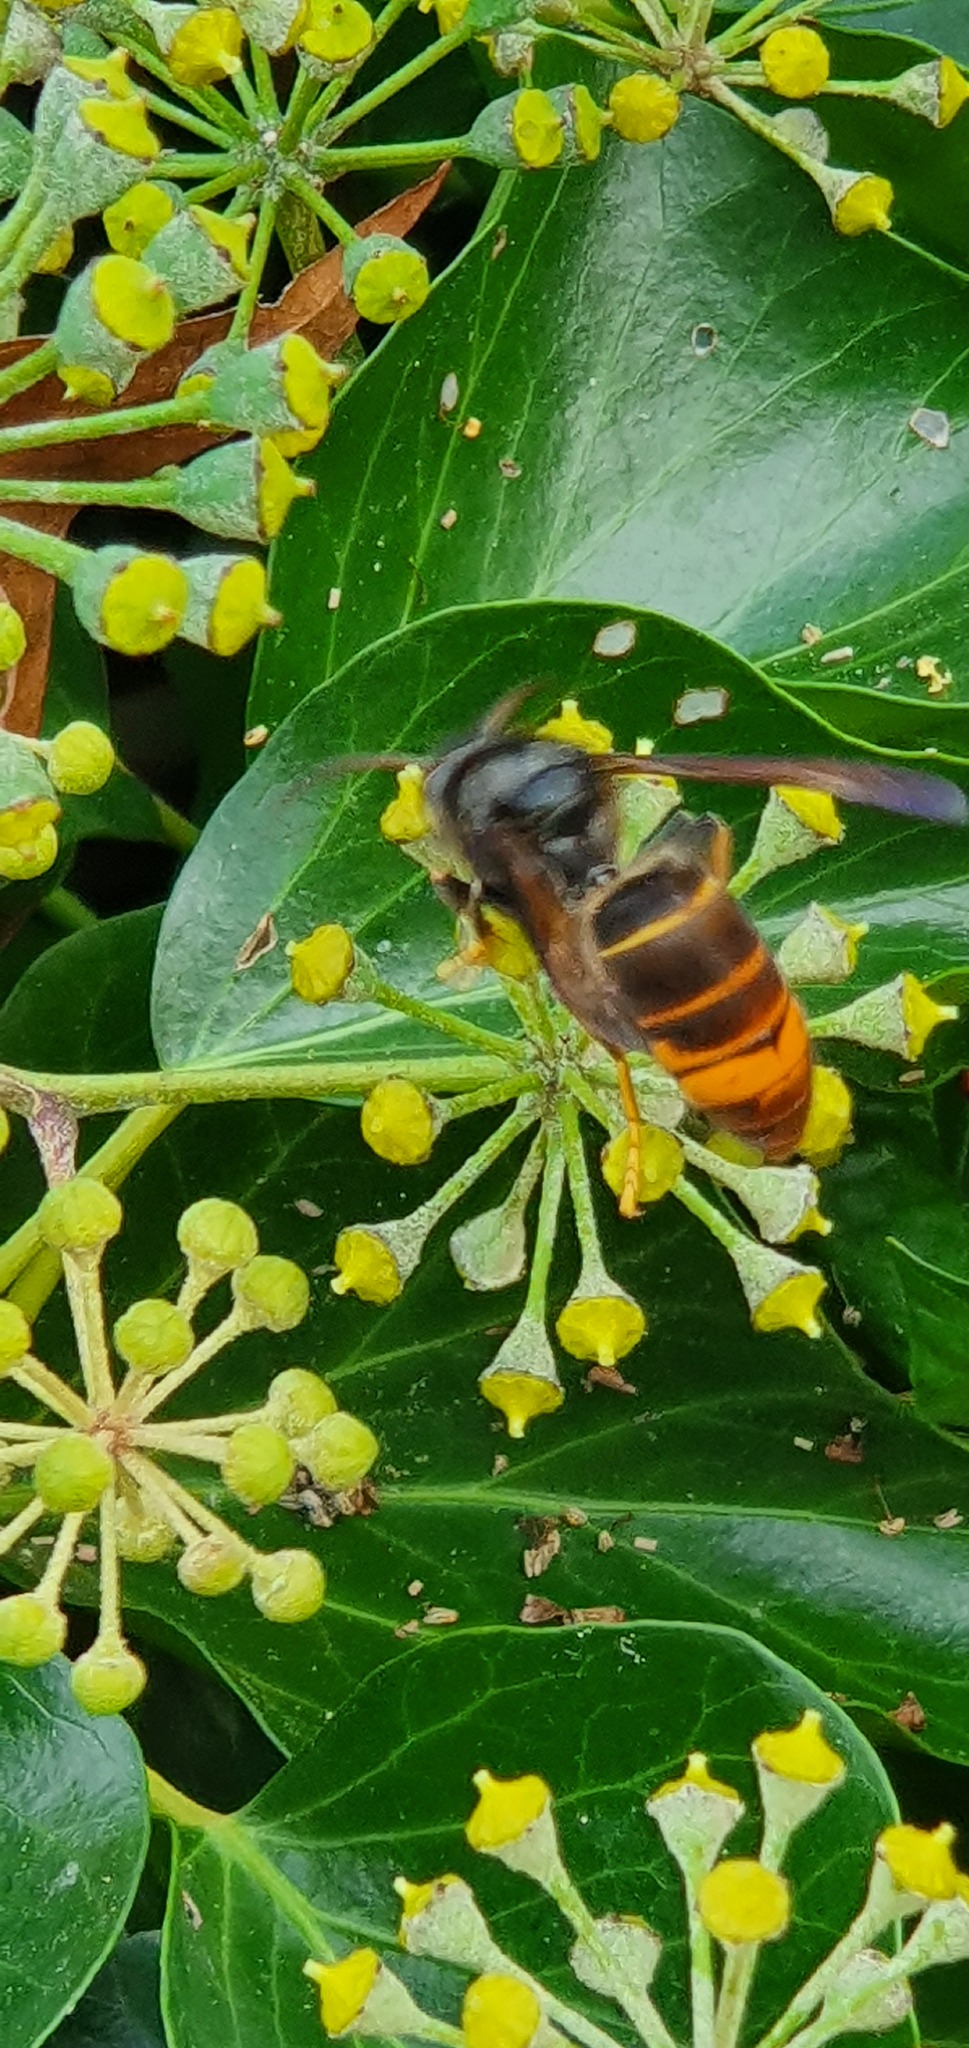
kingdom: Animalia
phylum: Arthropoda
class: Insecta
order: Hymenoptera
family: Vespidae
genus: Vespa
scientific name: Vespa velutina
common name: Asian hornet
